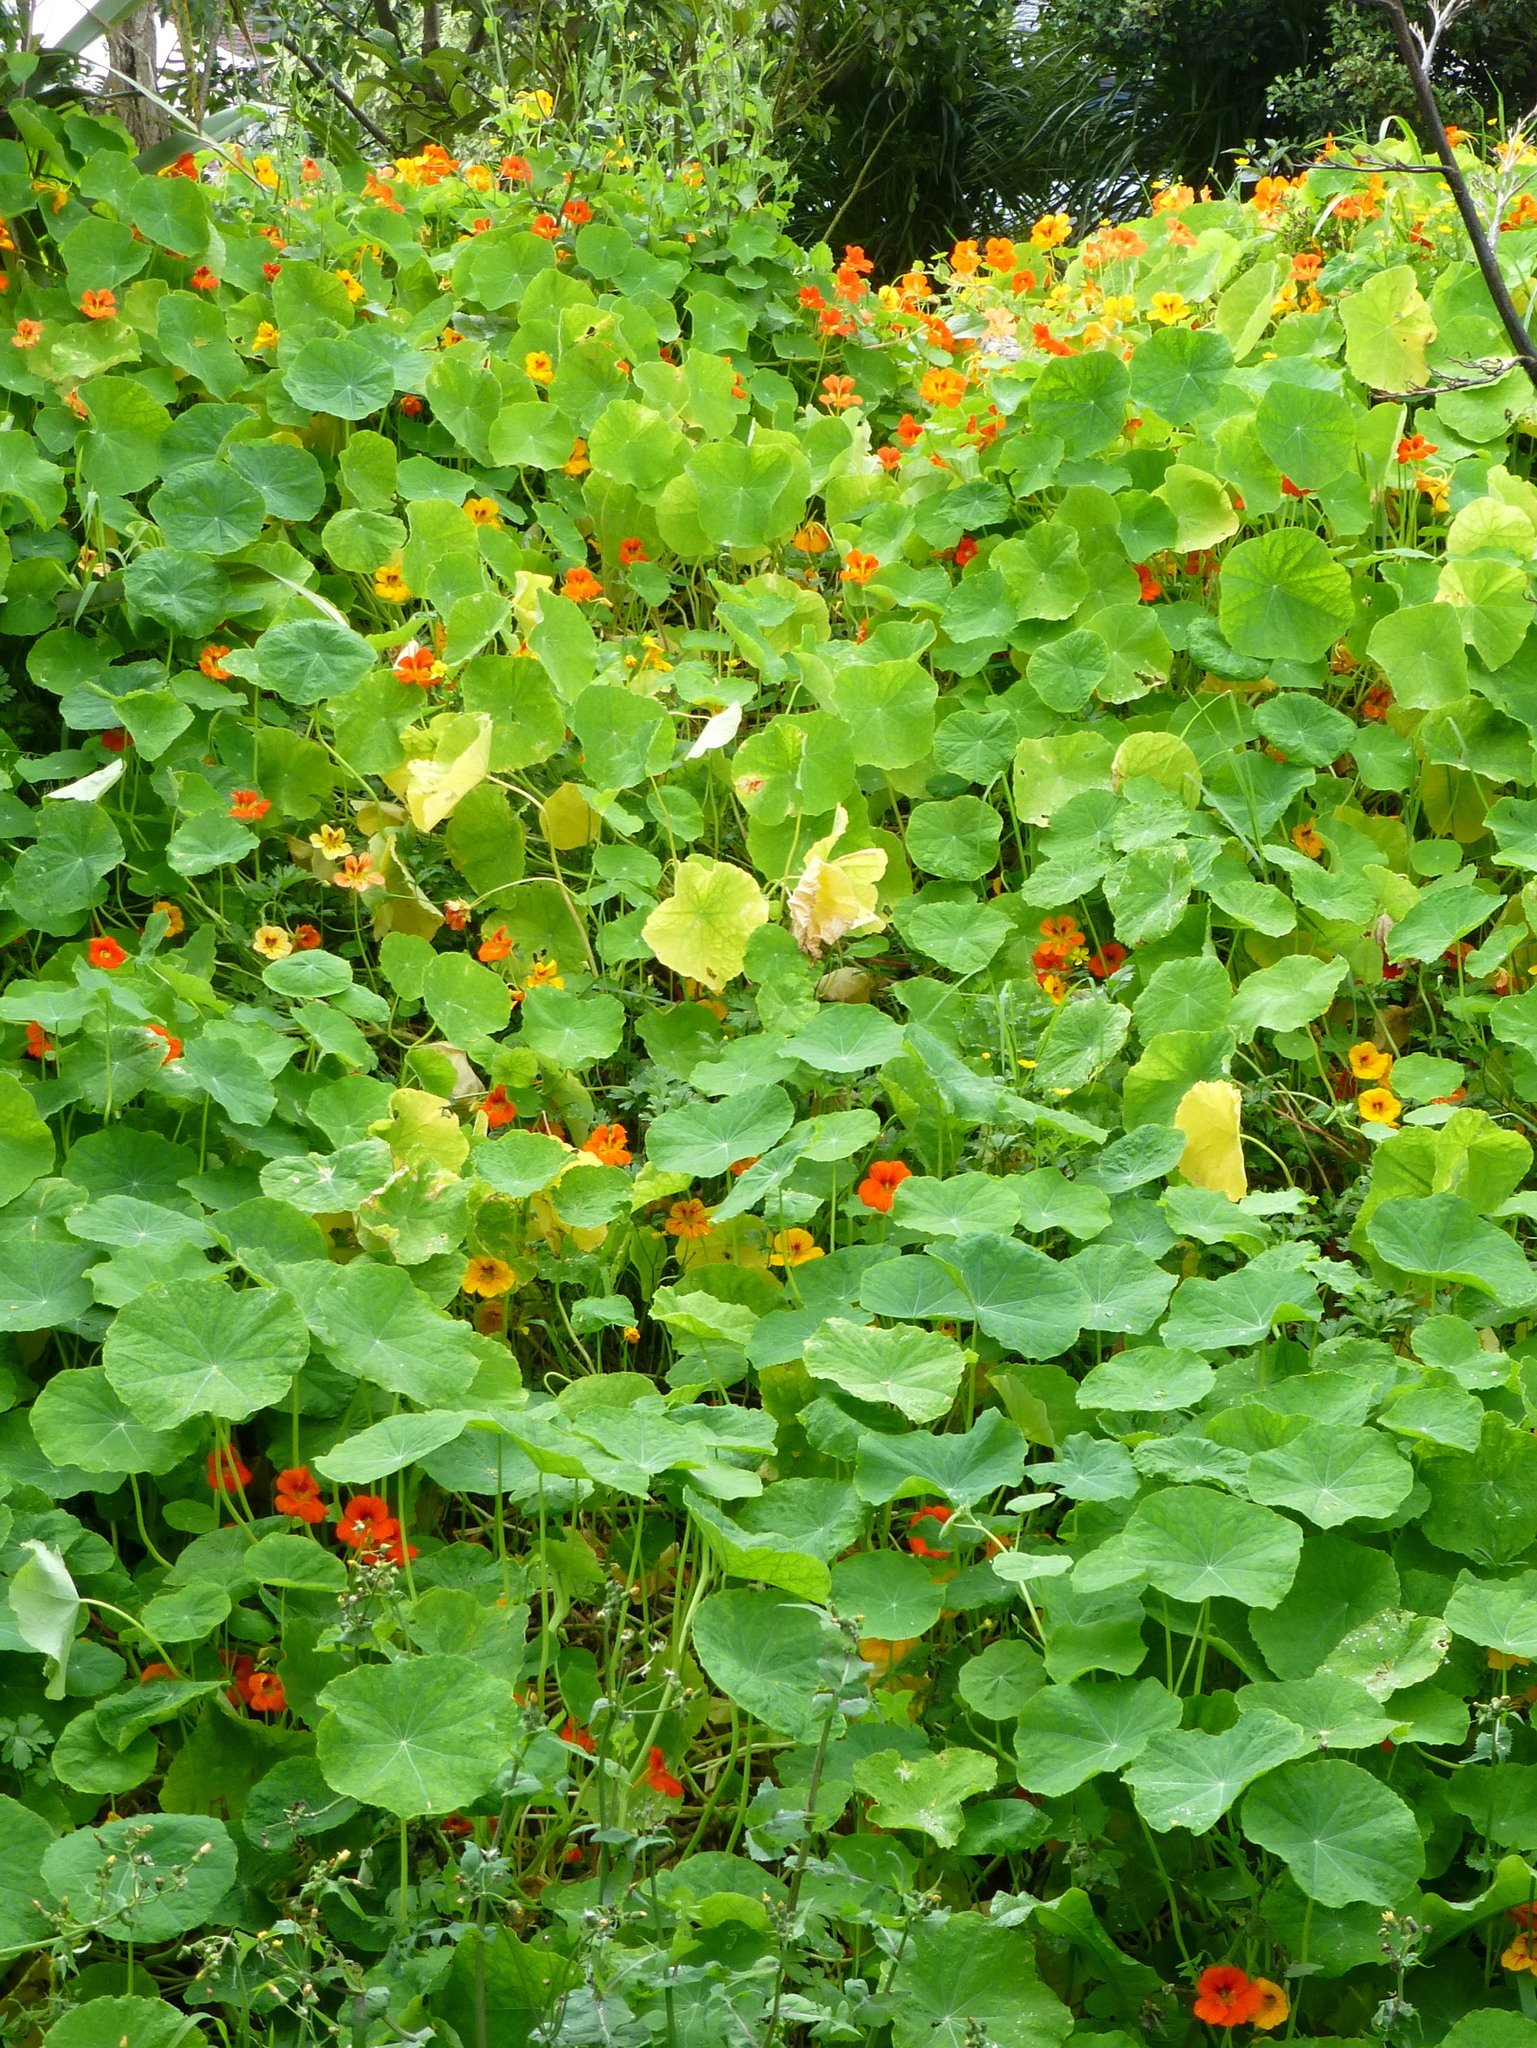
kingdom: Plantae
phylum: Tracheophyta
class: Magnoliopsida
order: Brassicales
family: Tropaeolaceae
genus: Tropaeolum
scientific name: Tropaeolum majus
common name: Nasturtium
